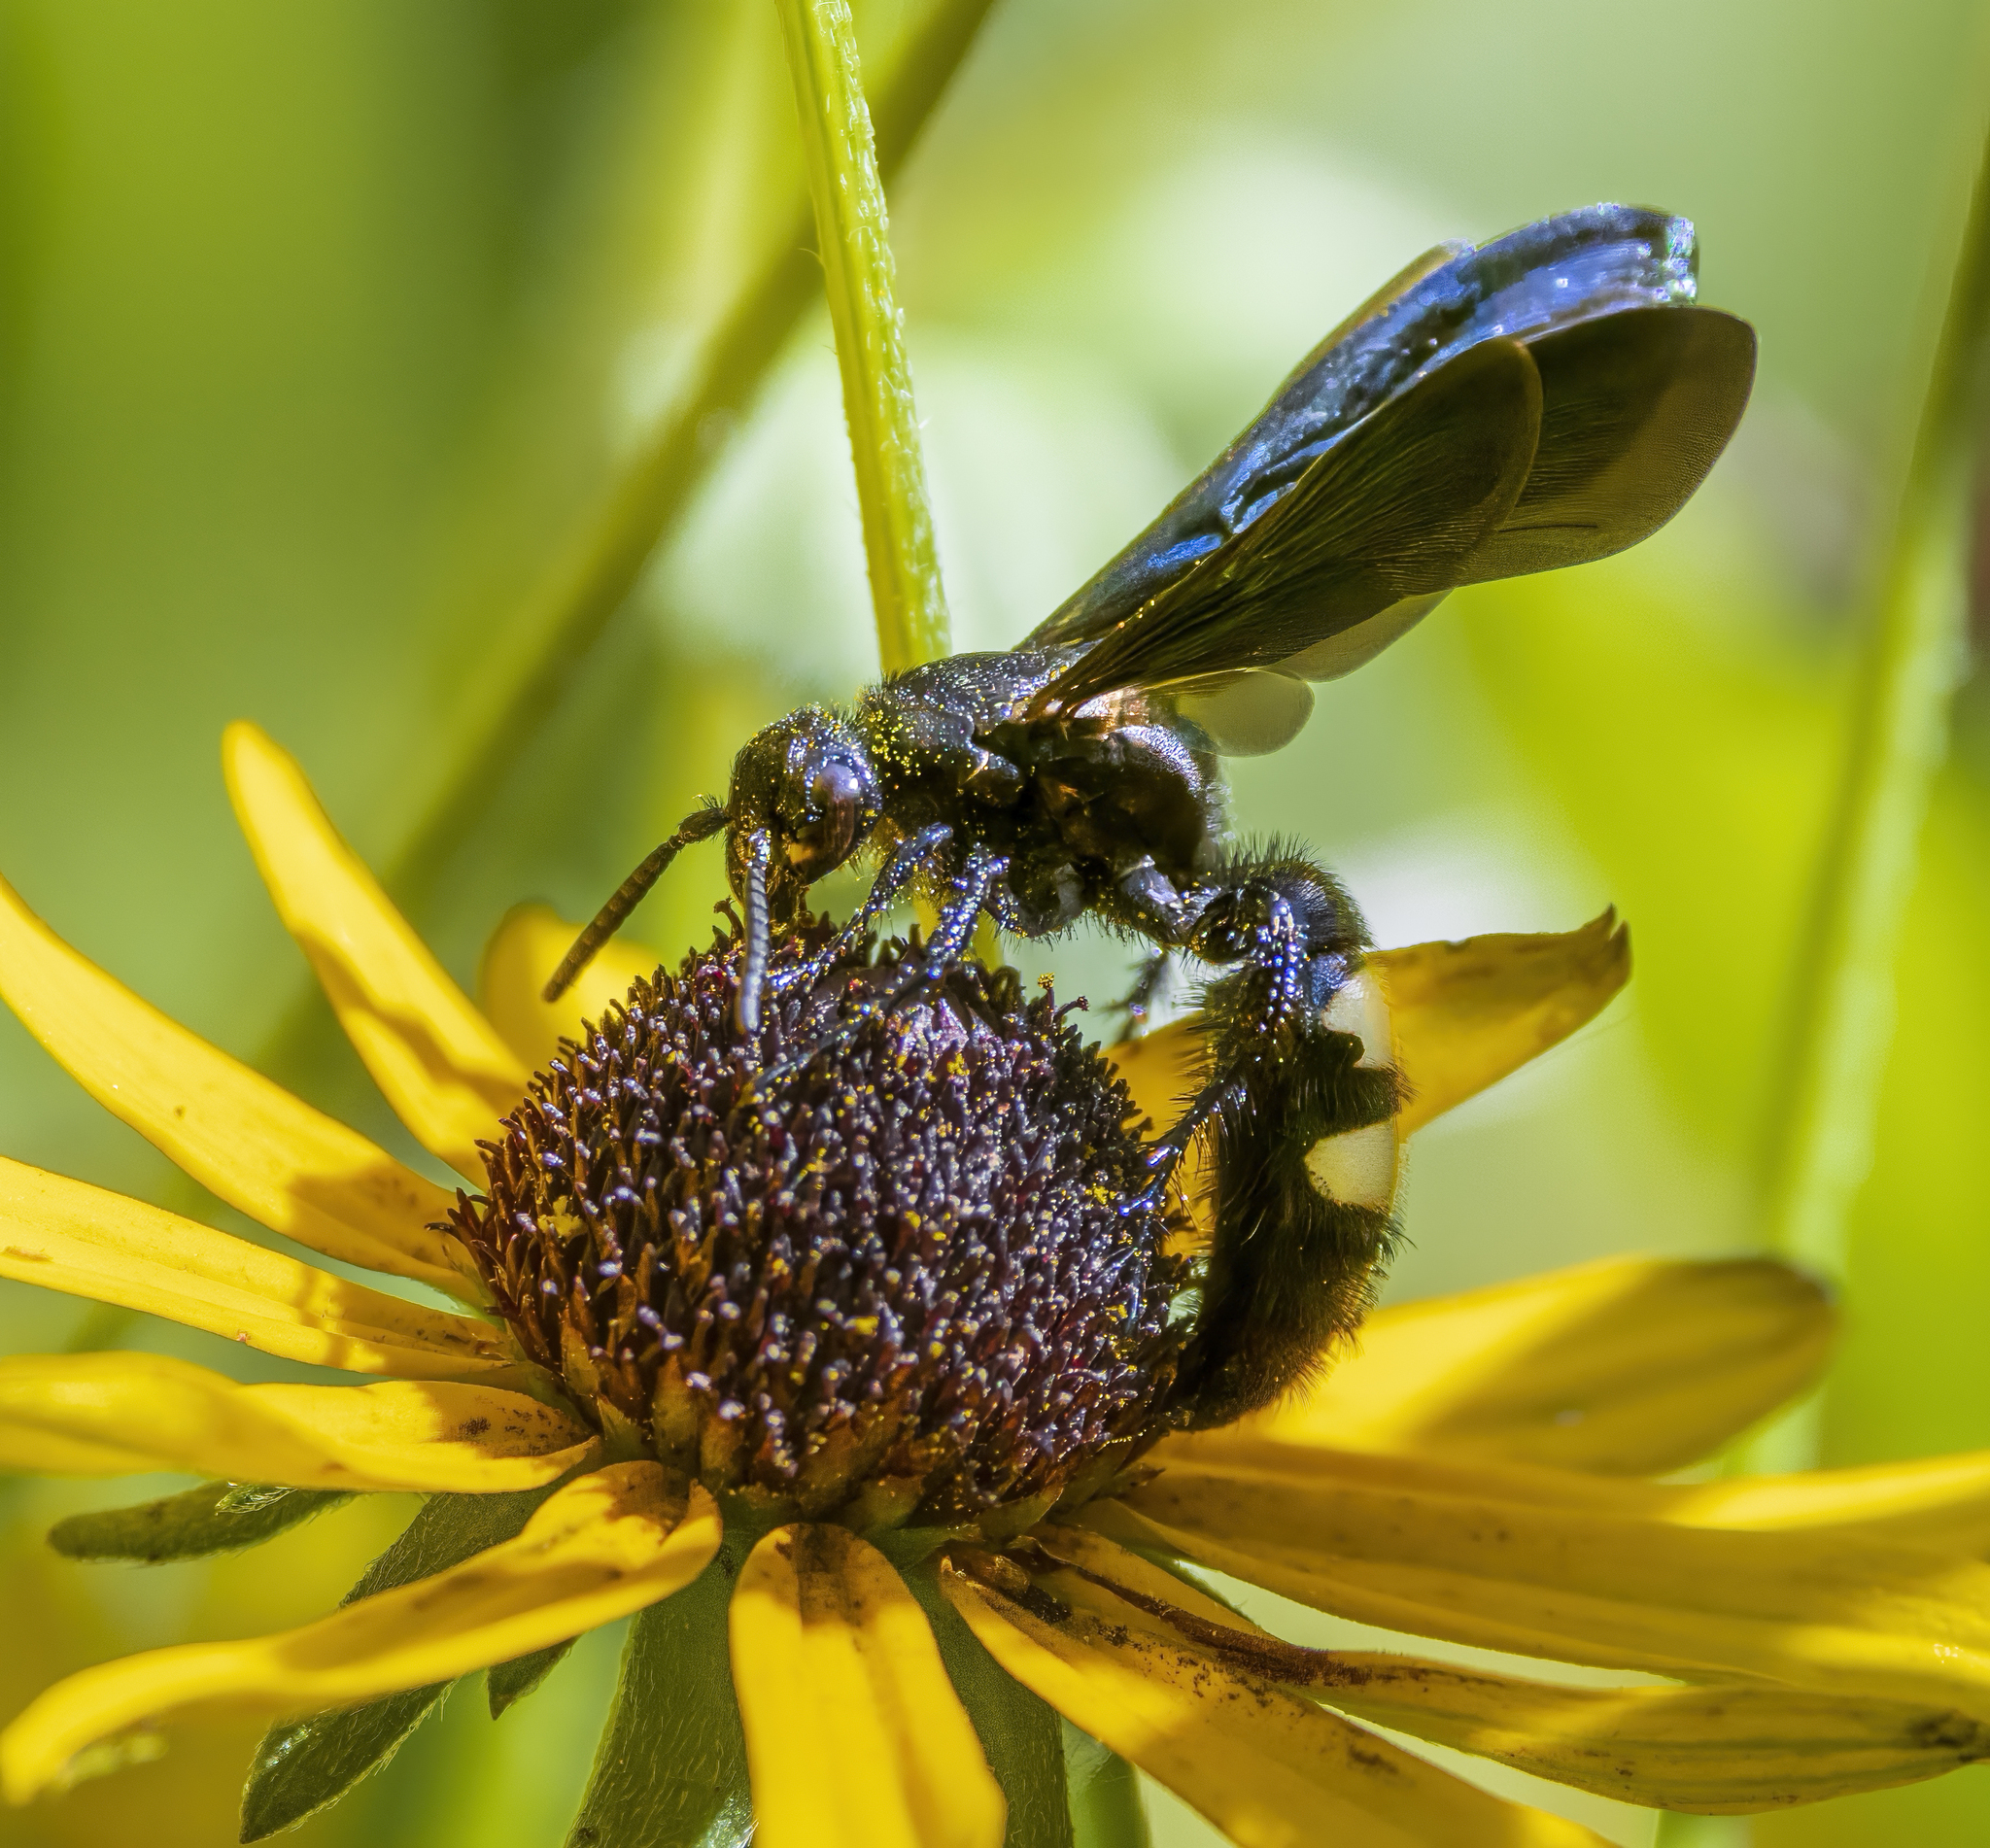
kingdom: Animalia
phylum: Arthropoda
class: Insecta
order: Hymenoptera
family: Scoliidae
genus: Scolia
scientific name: Scolia bicincta
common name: Double-banded scoliid wasp
